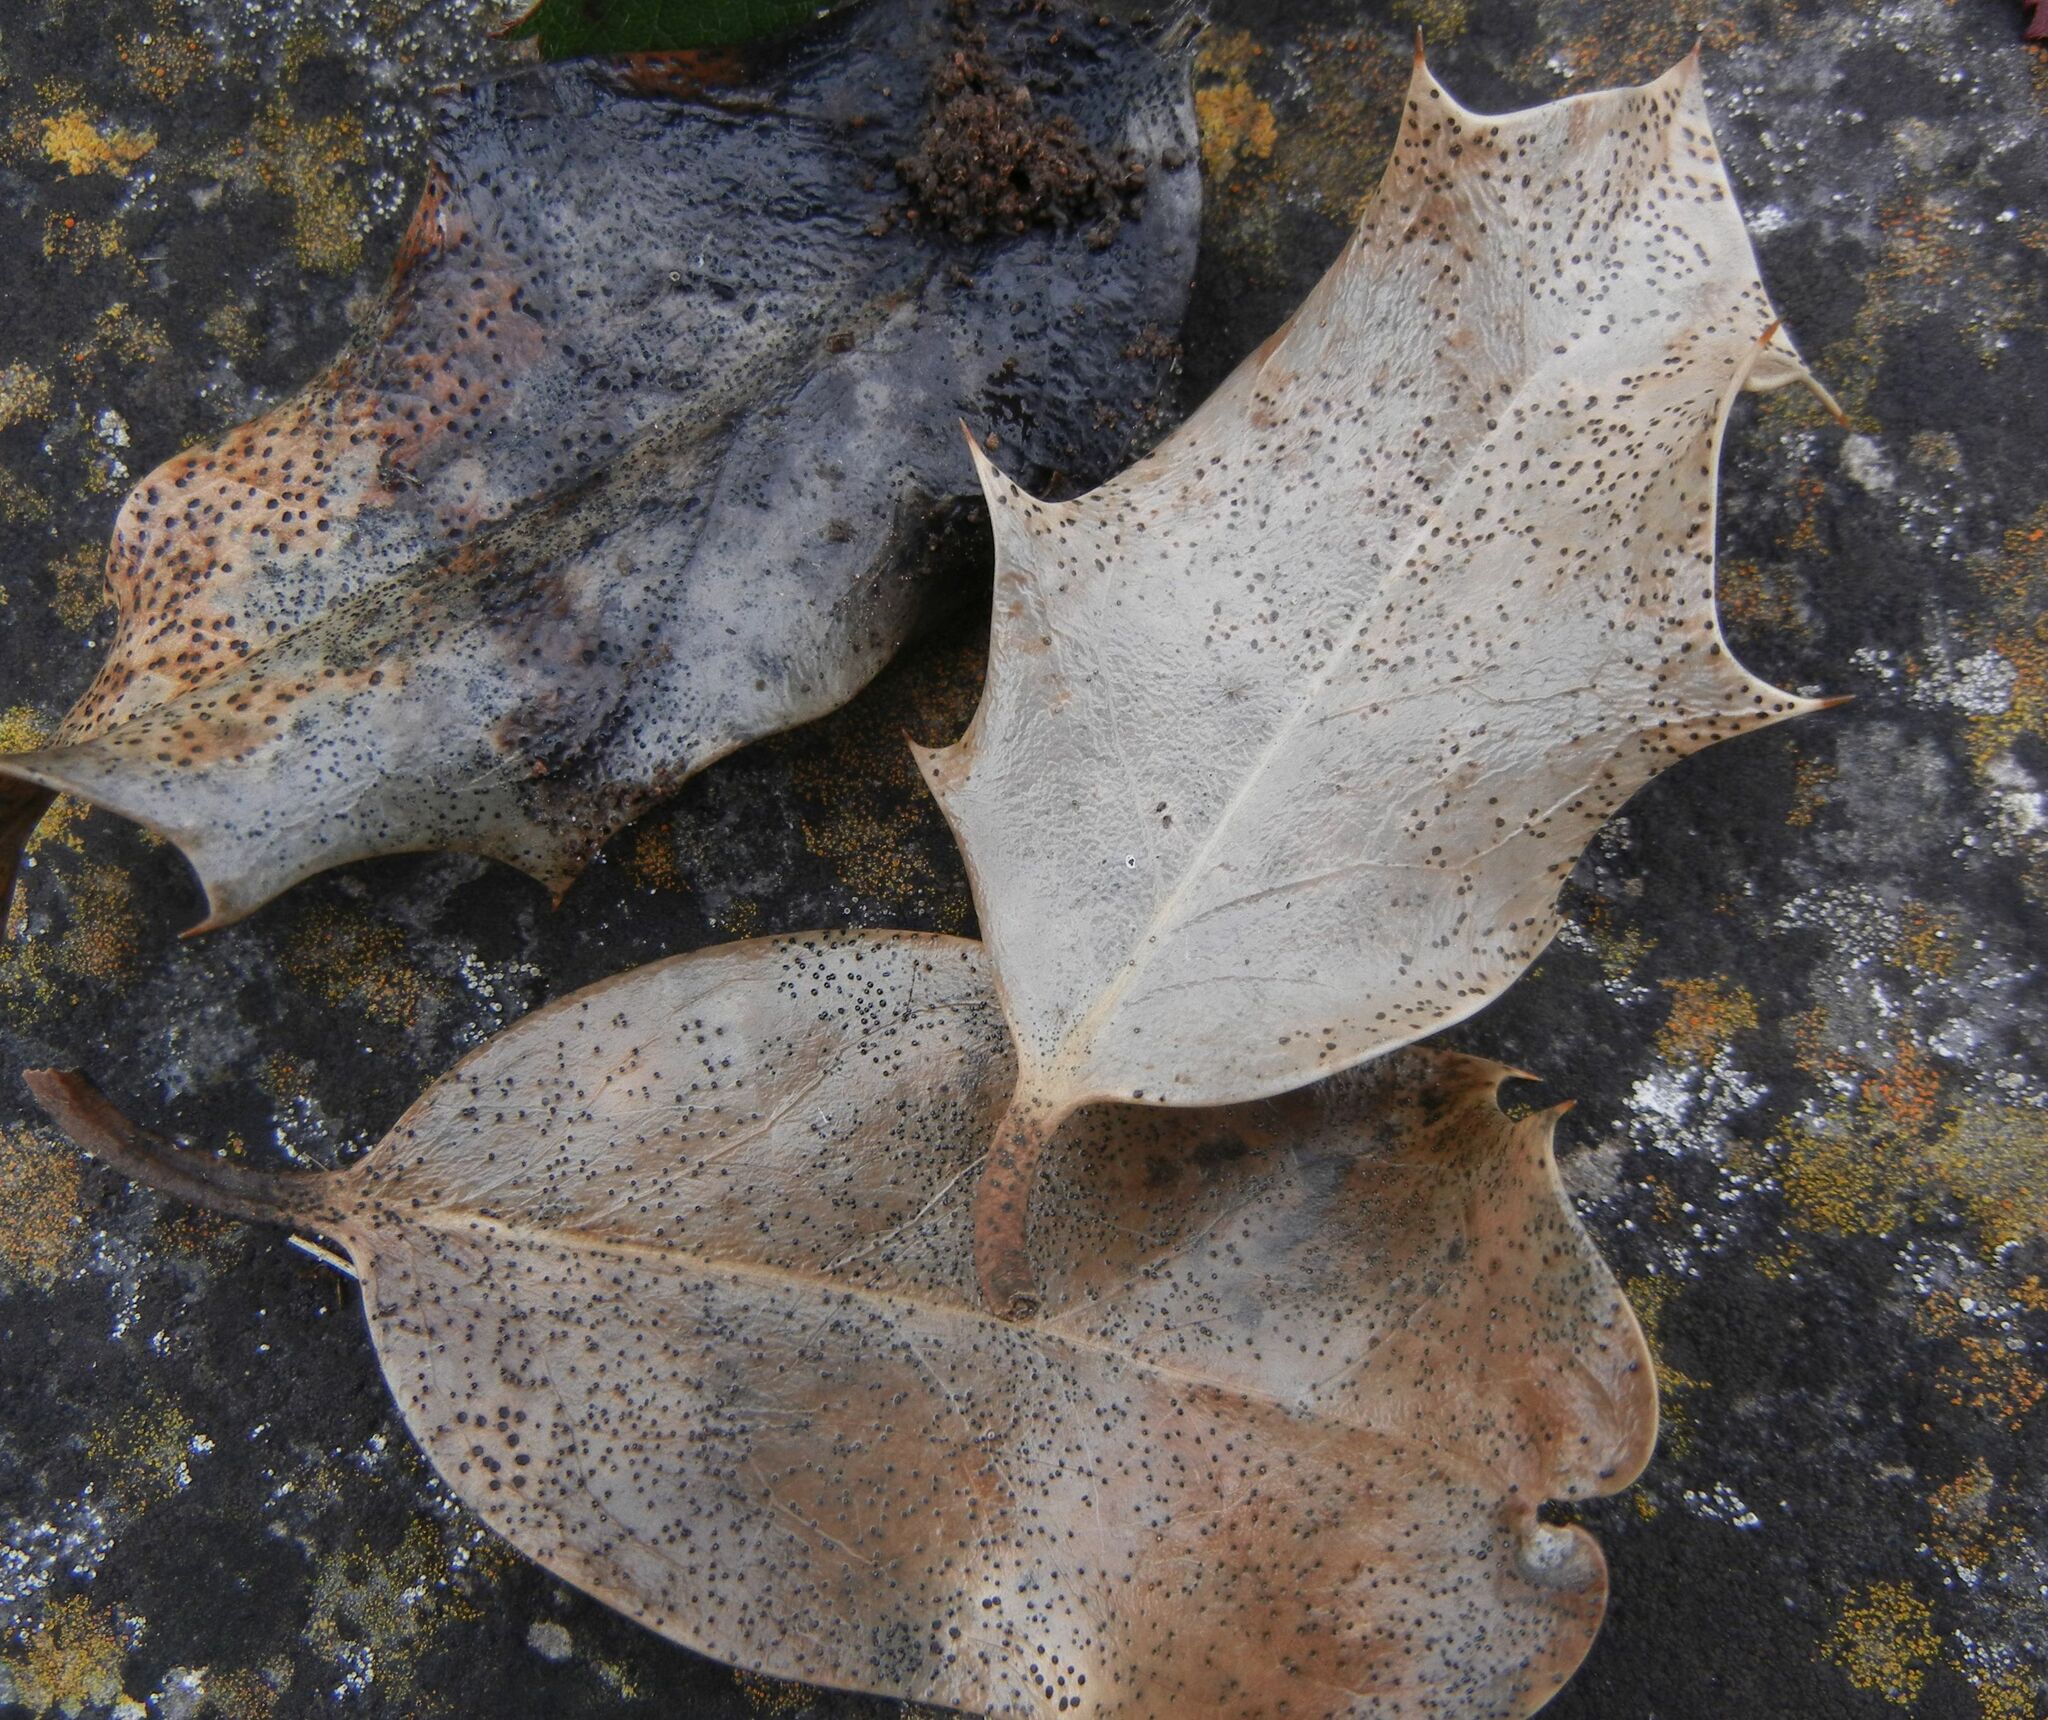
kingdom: Fungi
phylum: Ascomycota
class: Leotiomycetes
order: Helotiales
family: Cenangiaceae
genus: Trochila
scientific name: Trochila ilicina
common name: Holly speckle
